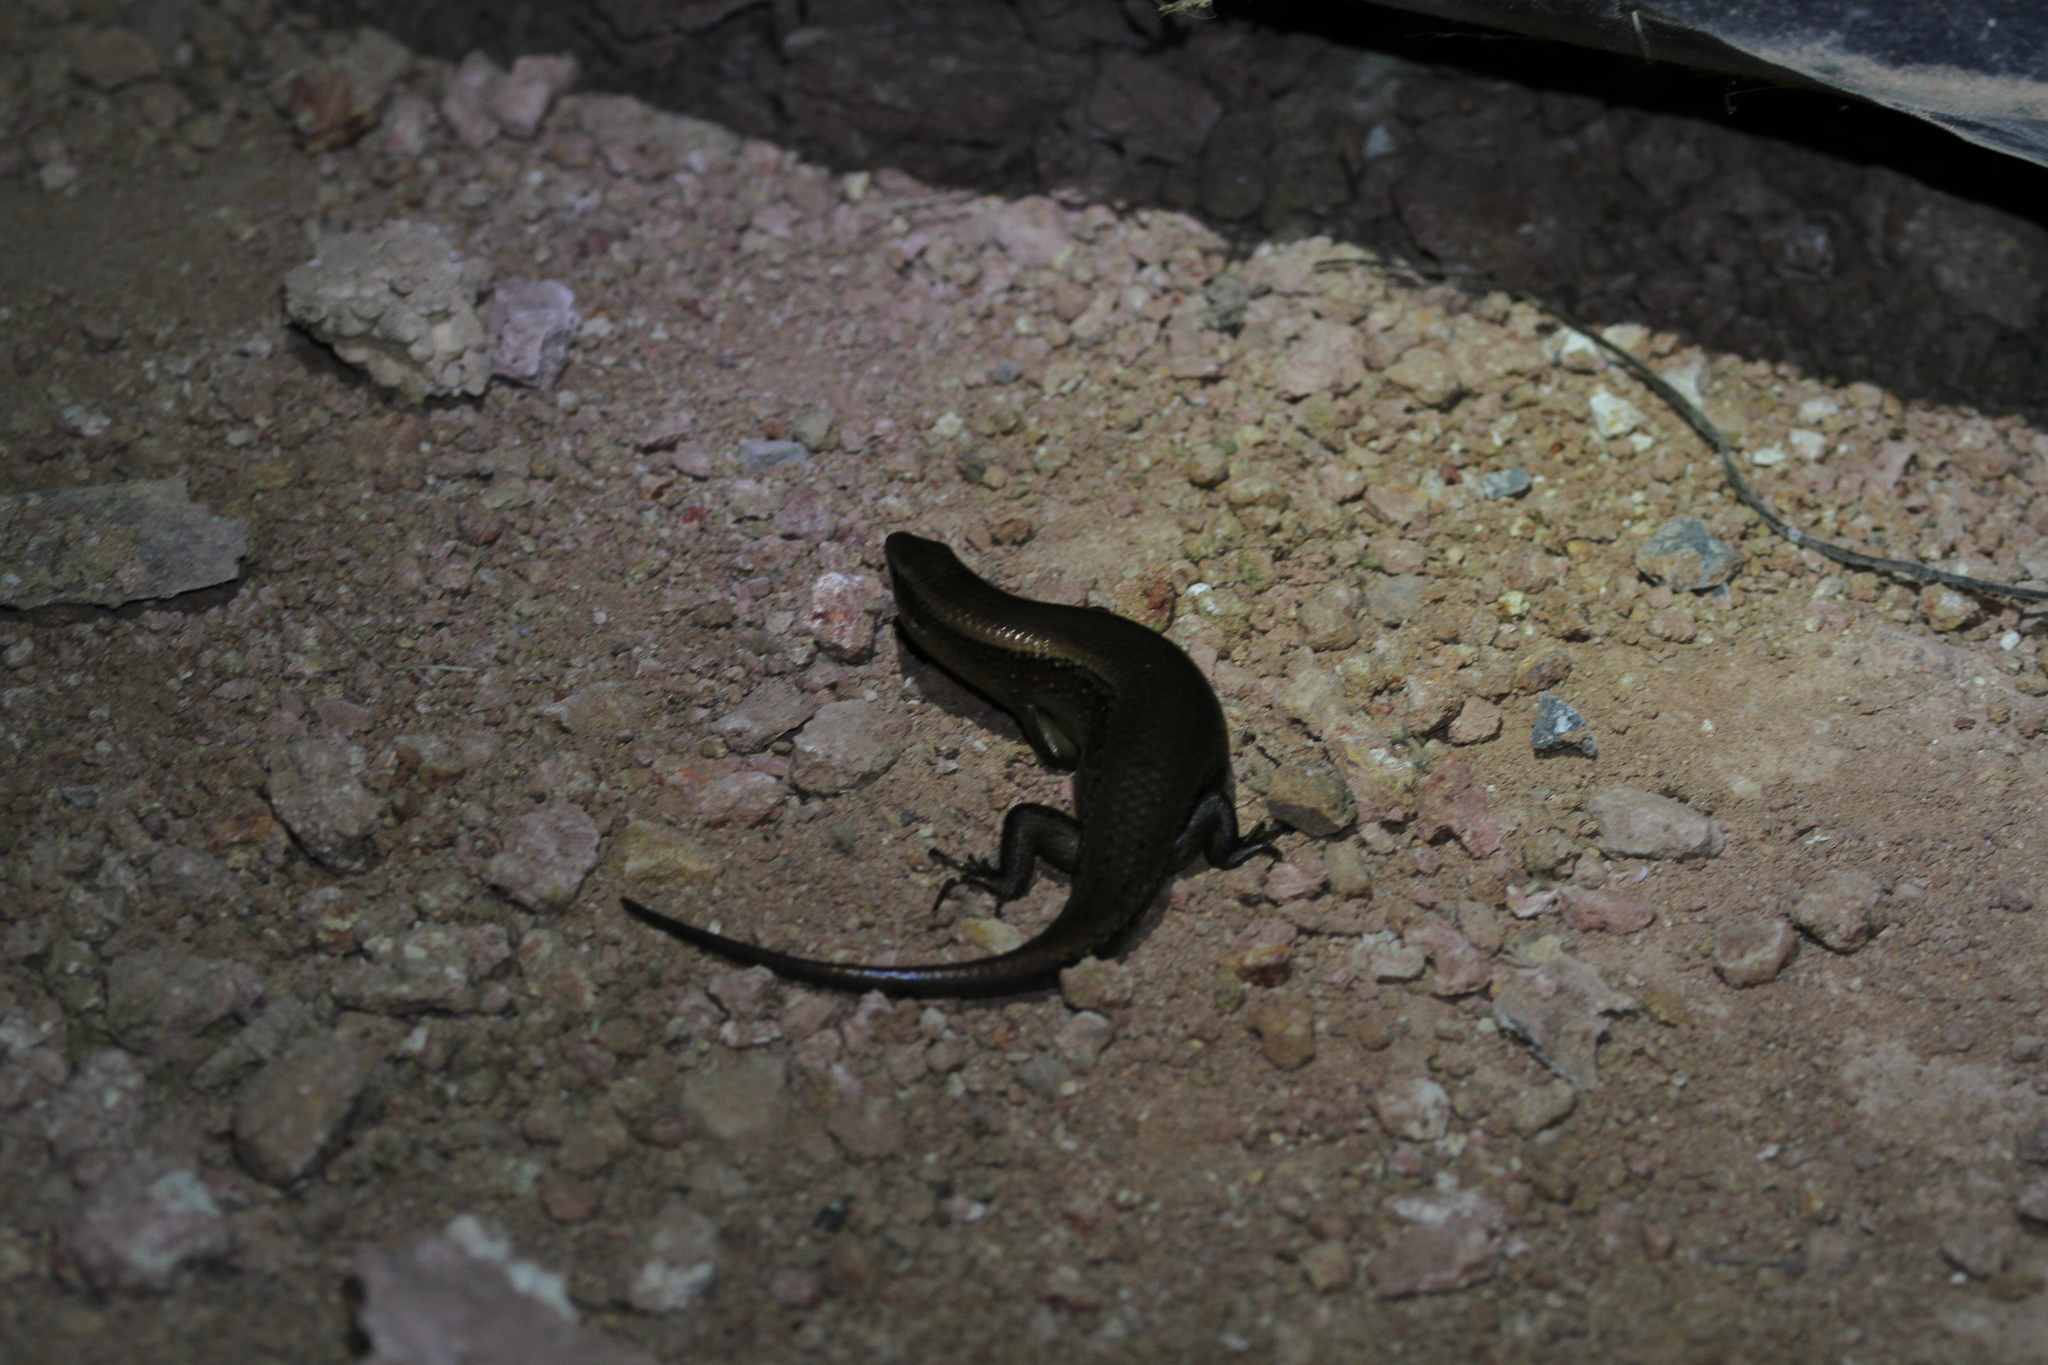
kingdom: Animalia
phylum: Chordata
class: Squamata
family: Scincidae
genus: Eutropis
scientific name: Eutropis multifasciata
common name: Common mabuya
